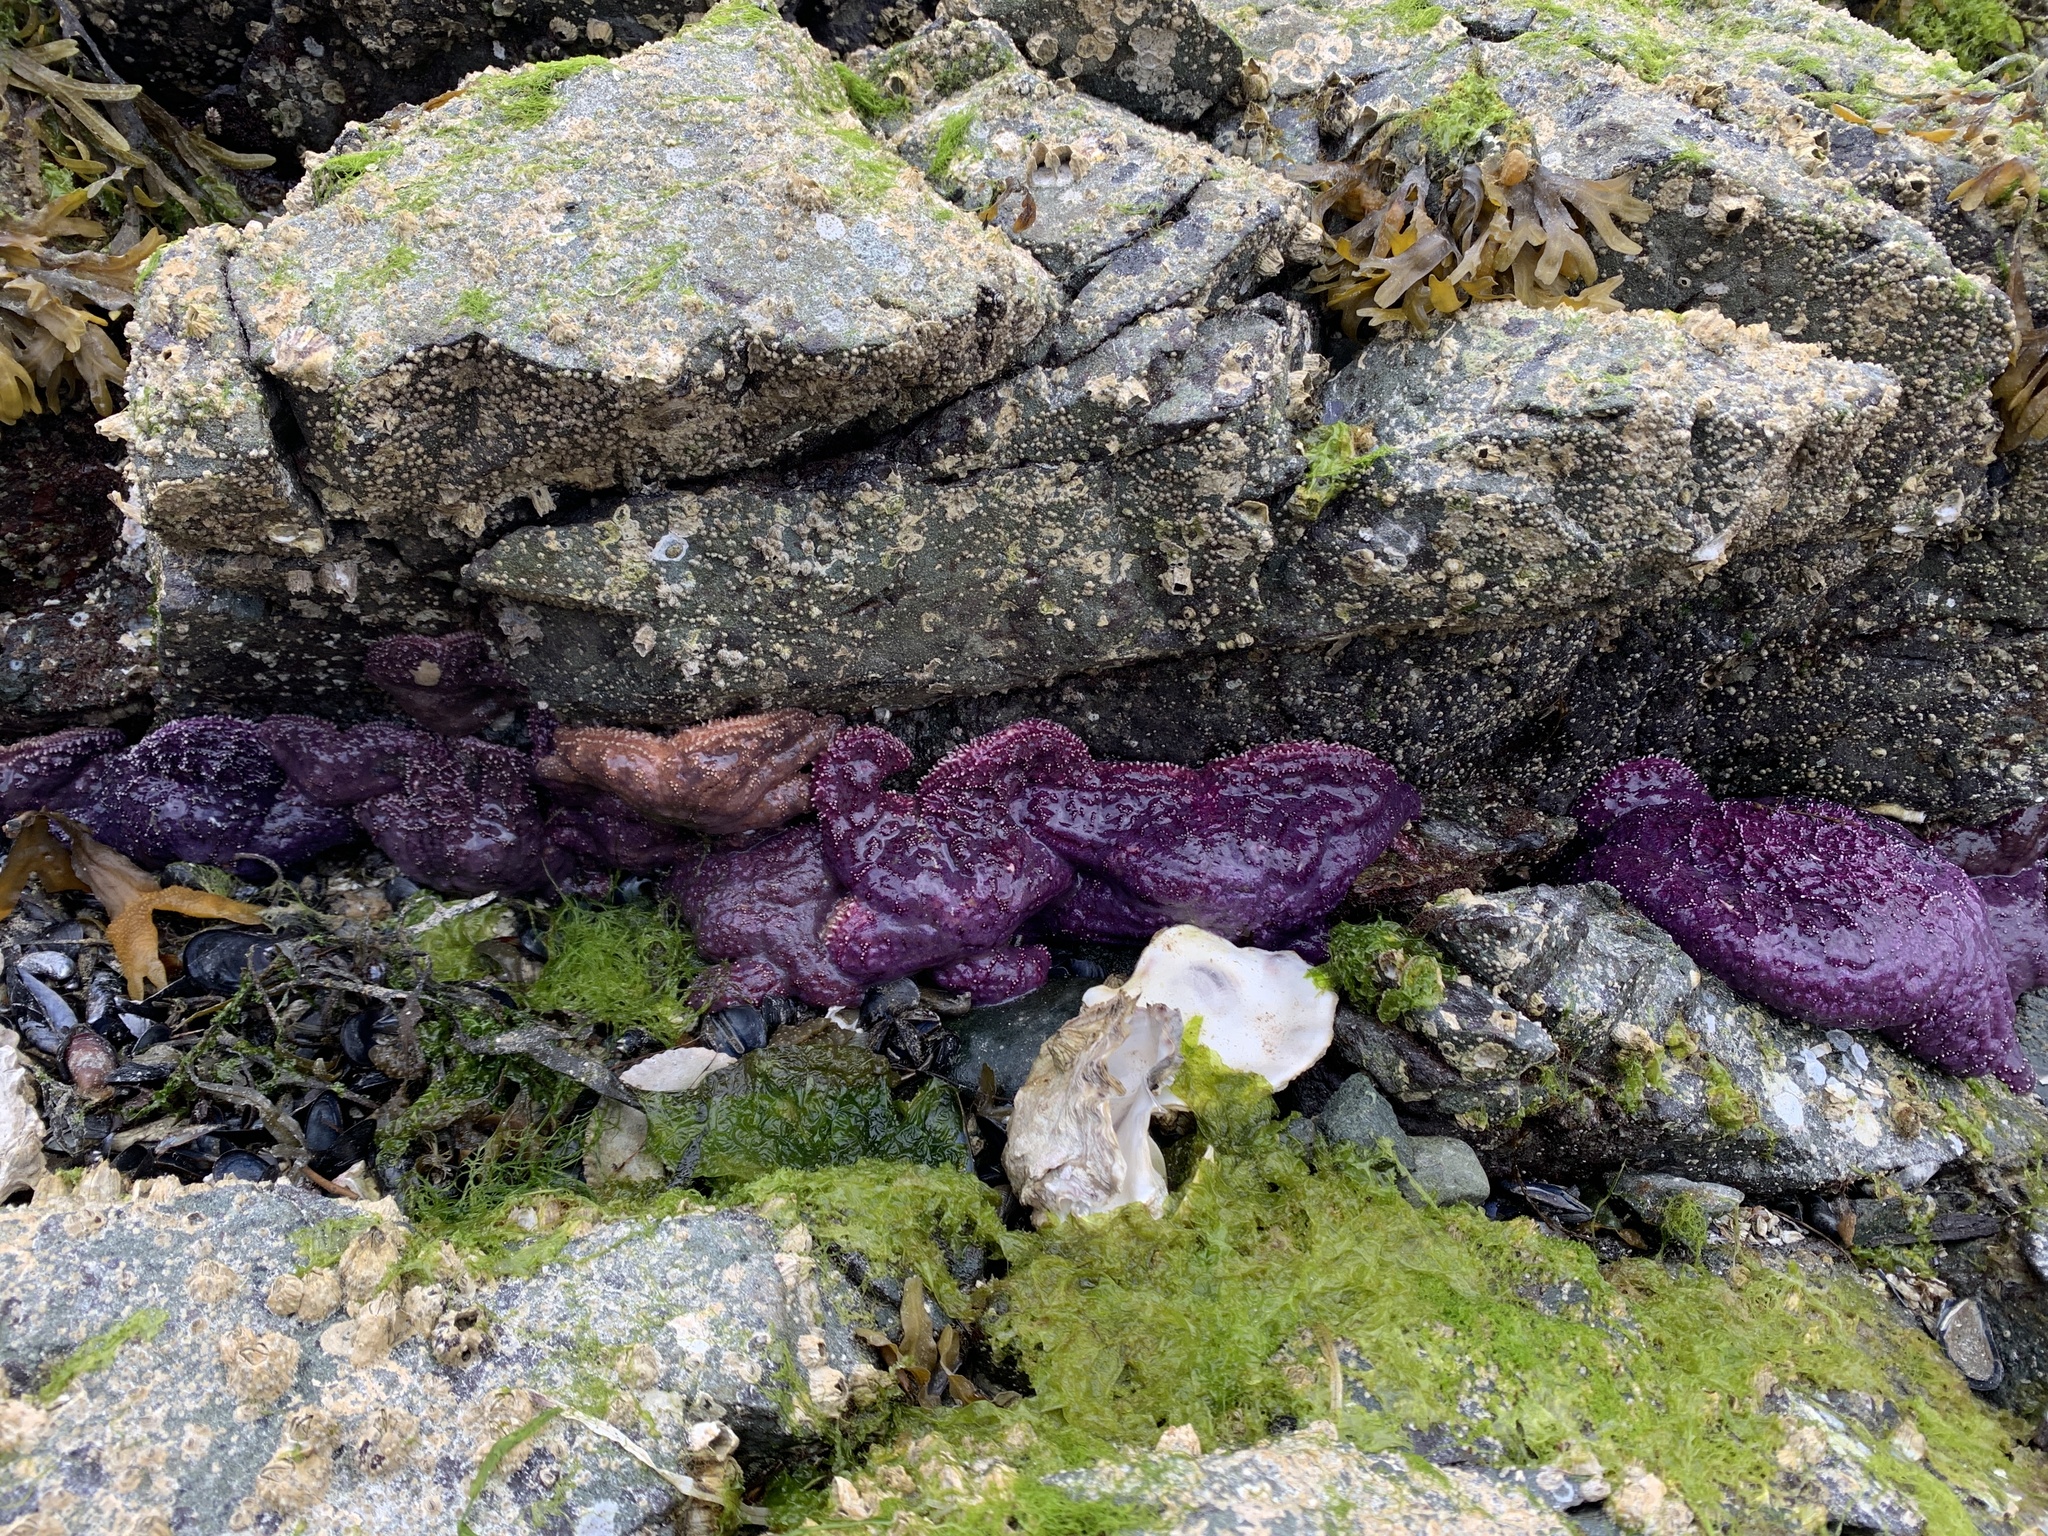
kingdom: Animalia
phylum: Echinodermata
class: Asteroidea
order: Forcipulatida
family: Asteriidae
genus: Pisaster
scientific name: Pisaster ochraceus
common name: Ochre stars
